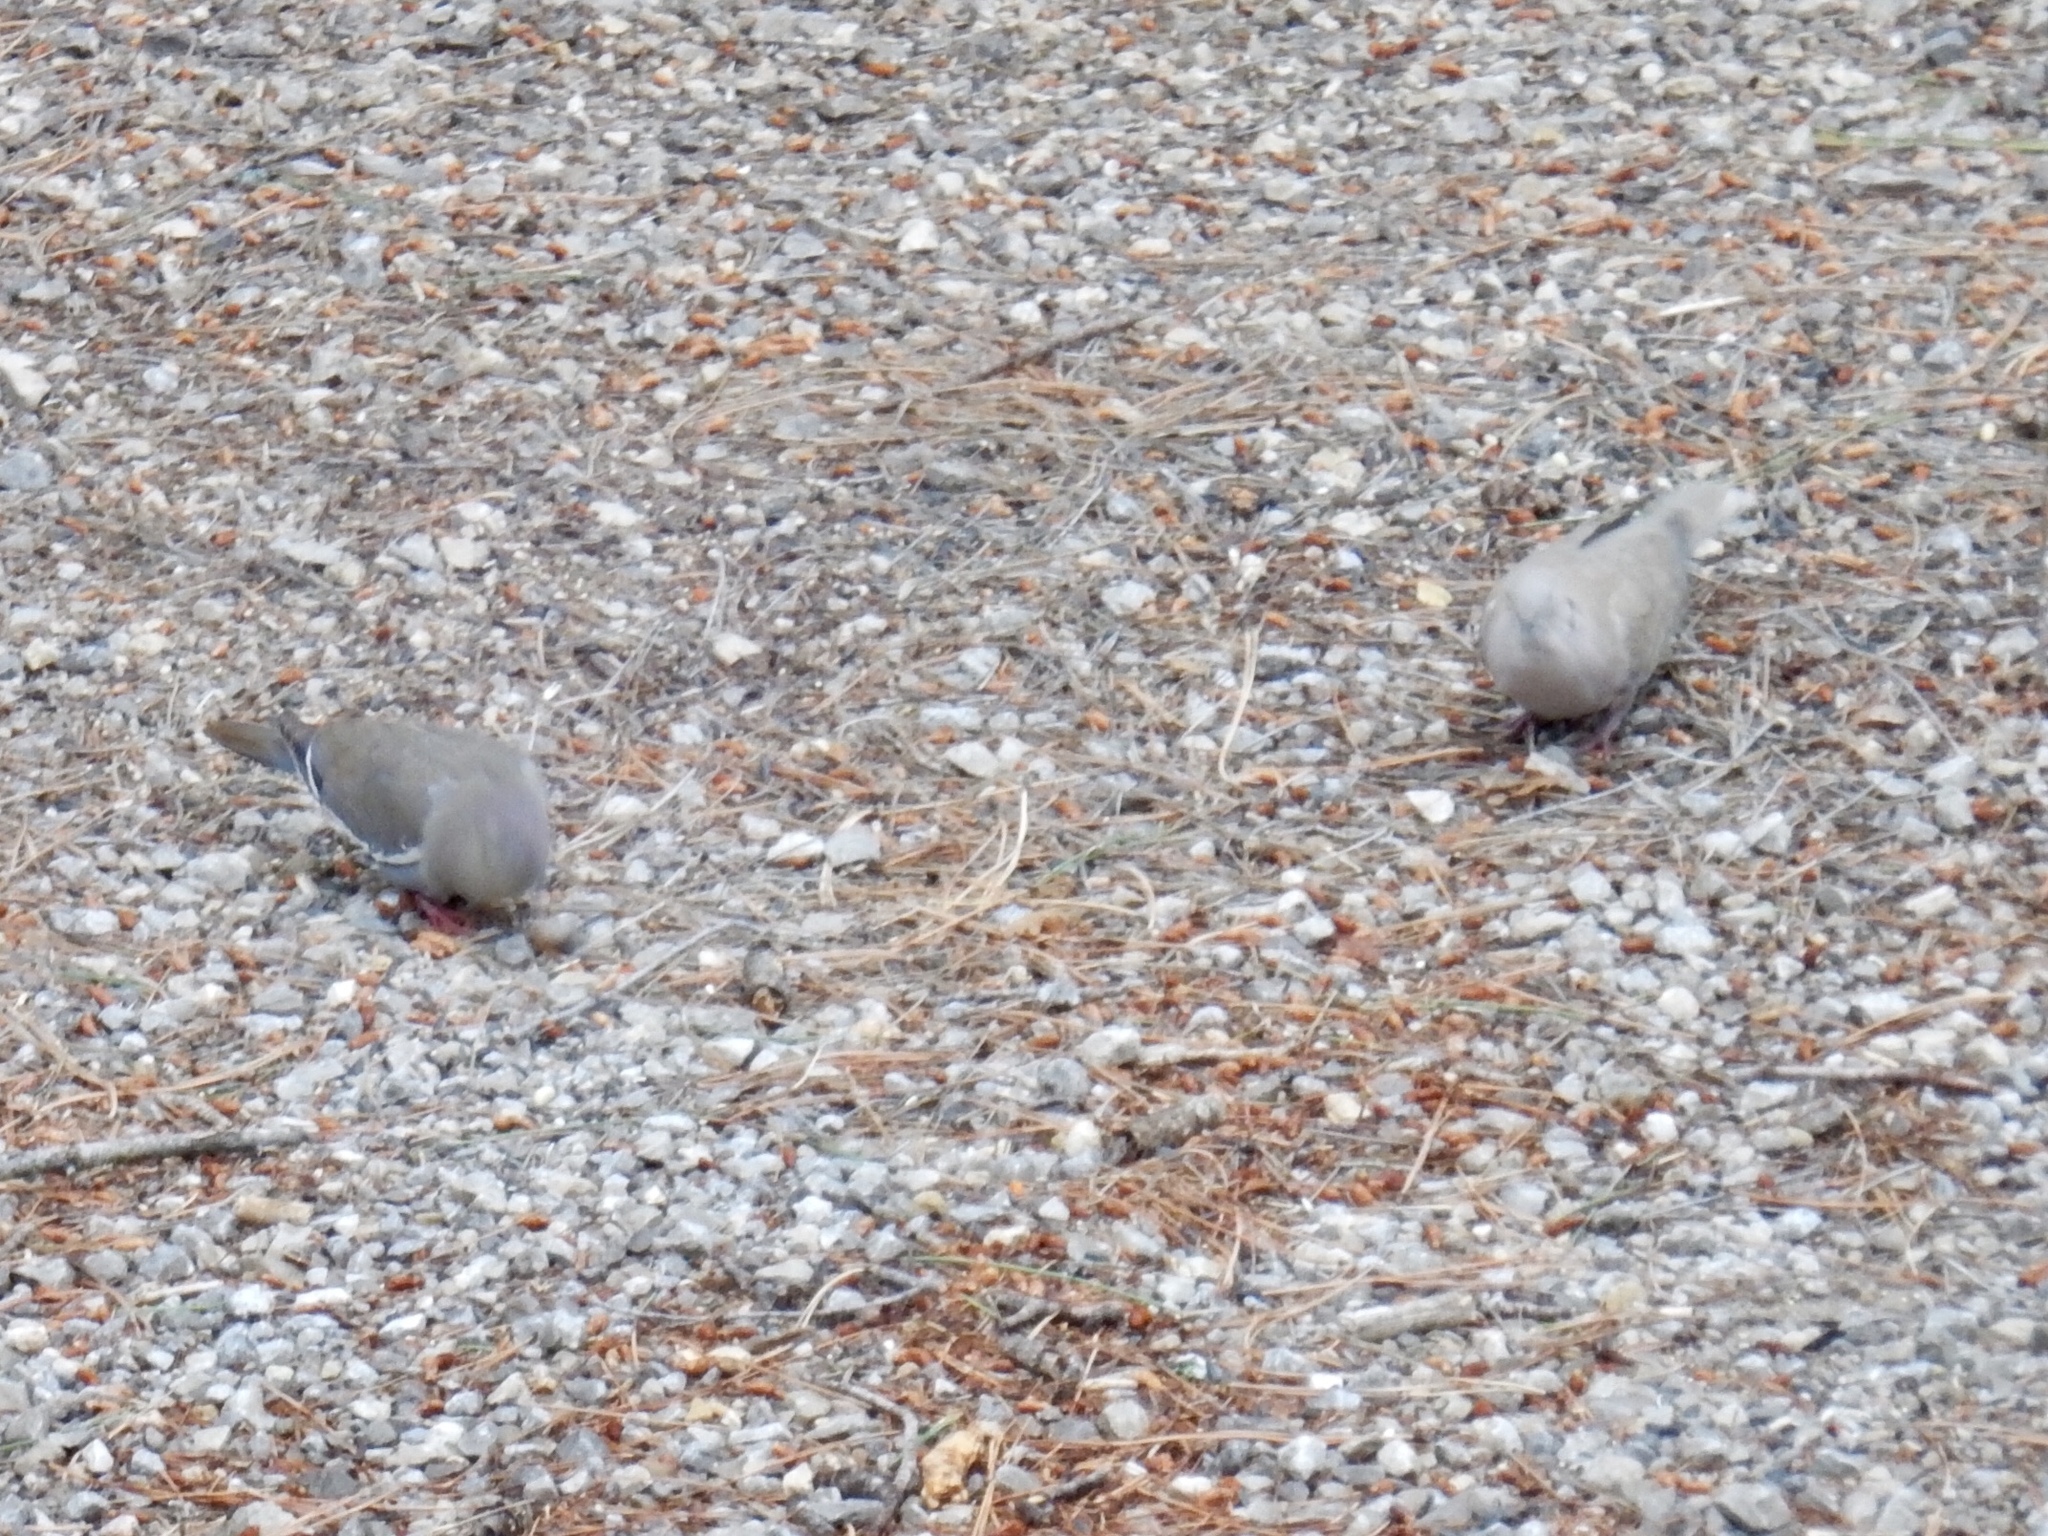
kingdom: Animalia
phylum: Chordata
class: Aves
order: Columbiformes
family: Columbidae
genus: Streptopelia
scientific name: Streptopelia decaocto
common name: Eurasian collared dove
